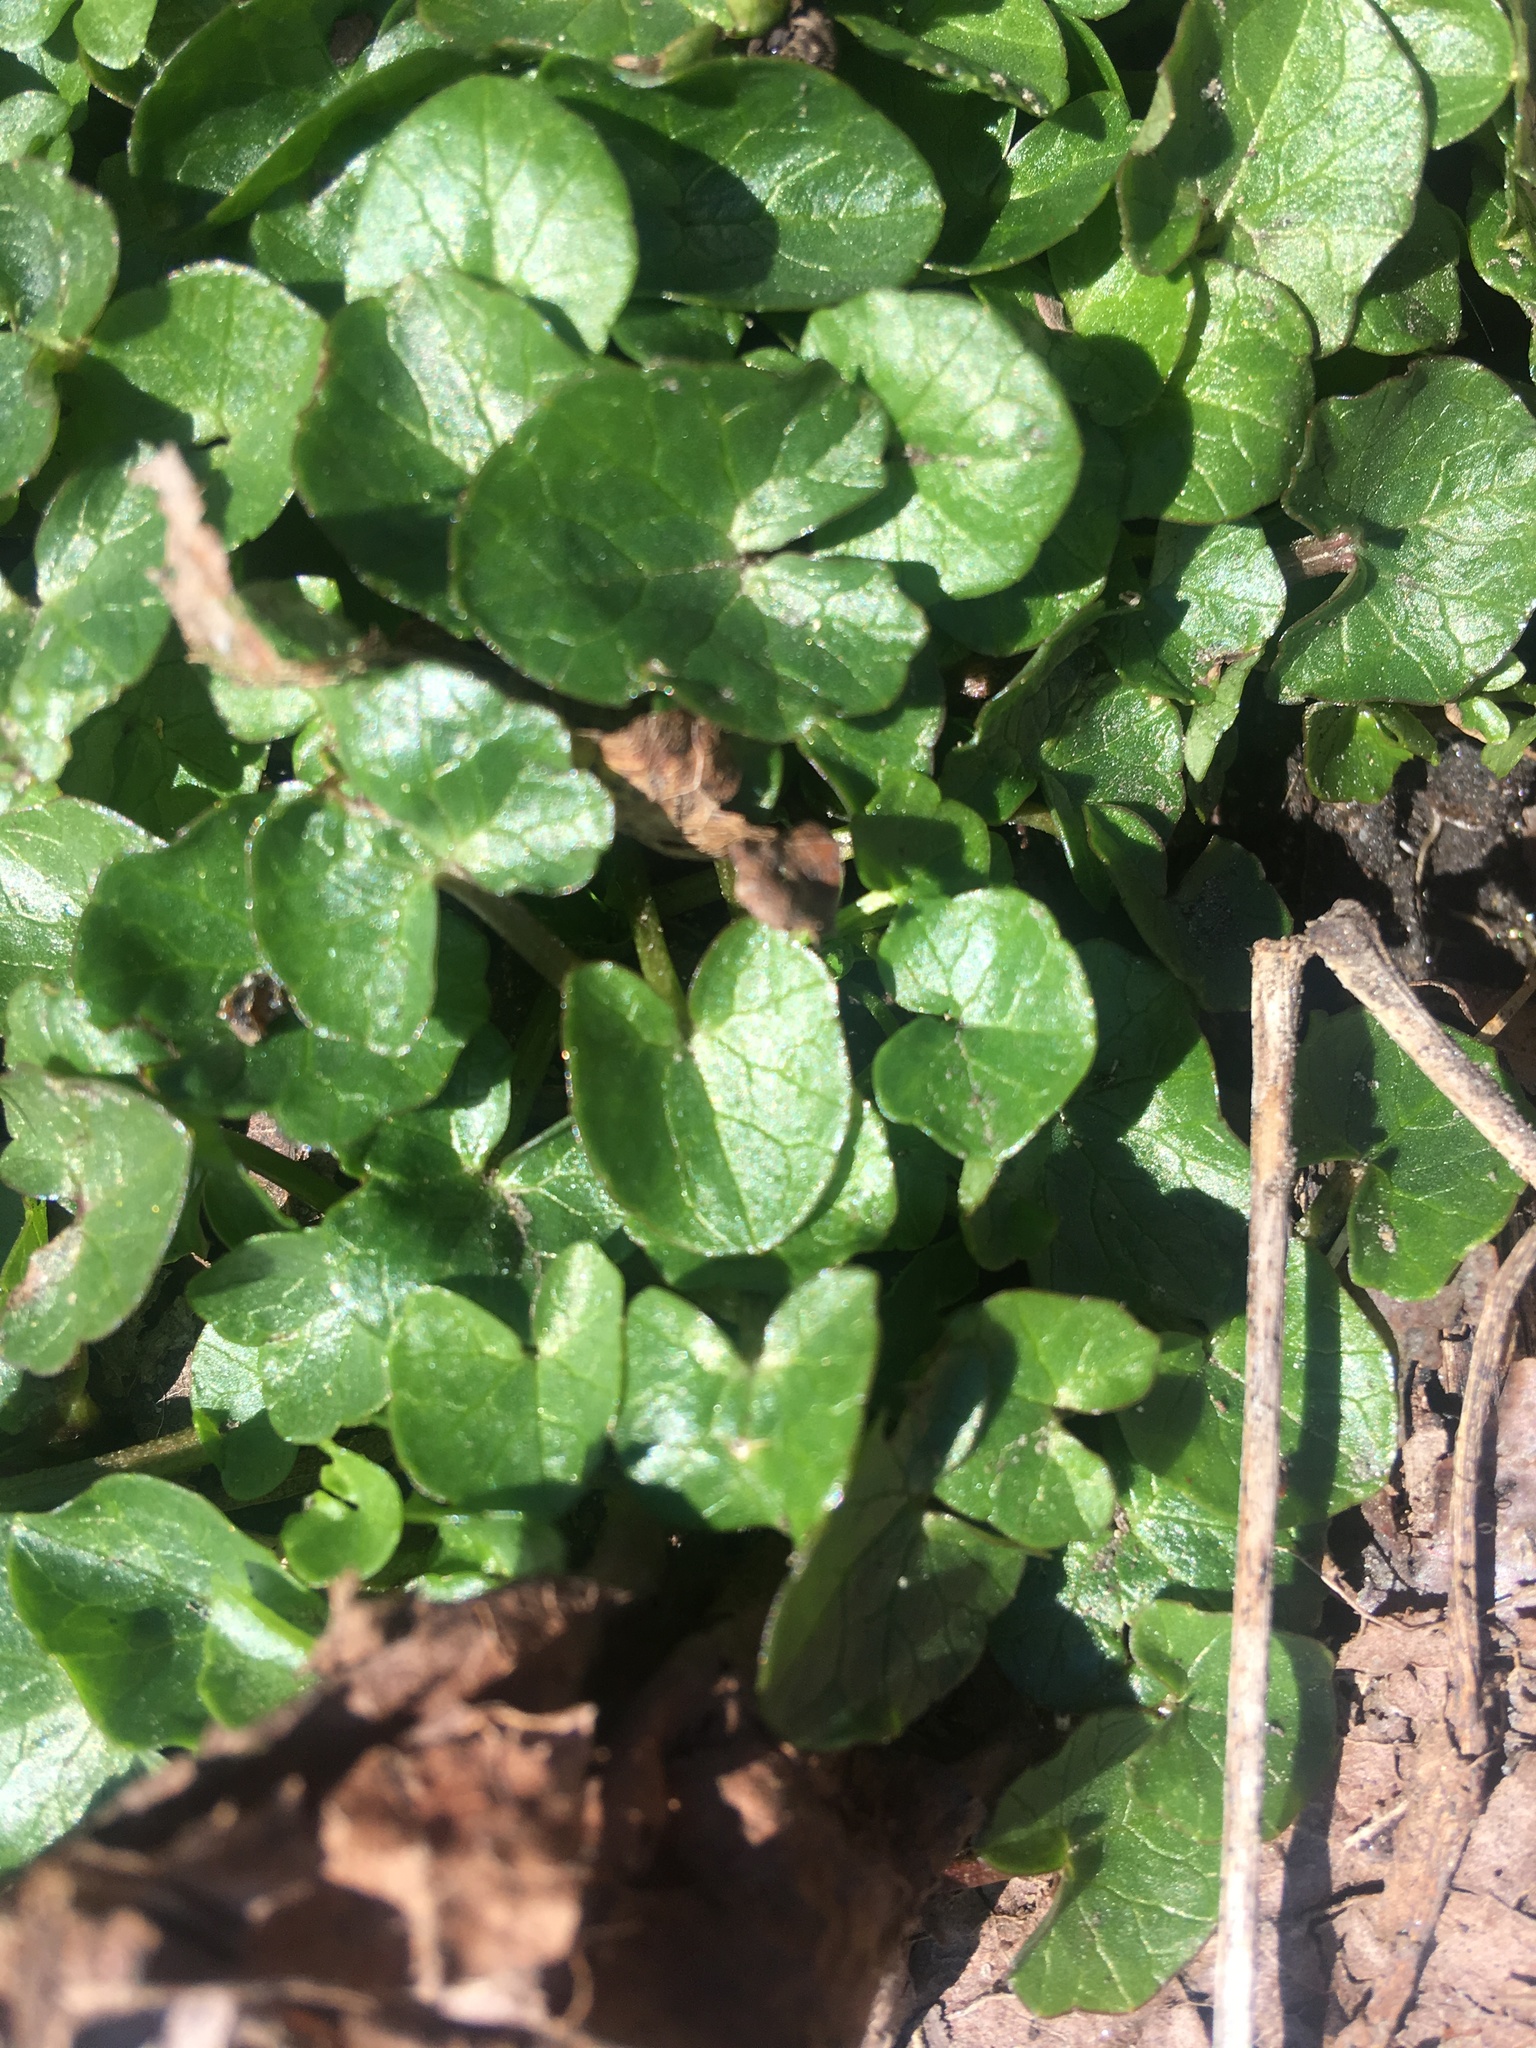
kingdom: Plantae
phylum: Tracheophyta
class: Magnoliopsida
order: Ranunculales
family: Ranunculaceae
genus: Ficaria
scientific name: Ficaria verna
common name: Lesser celandine
